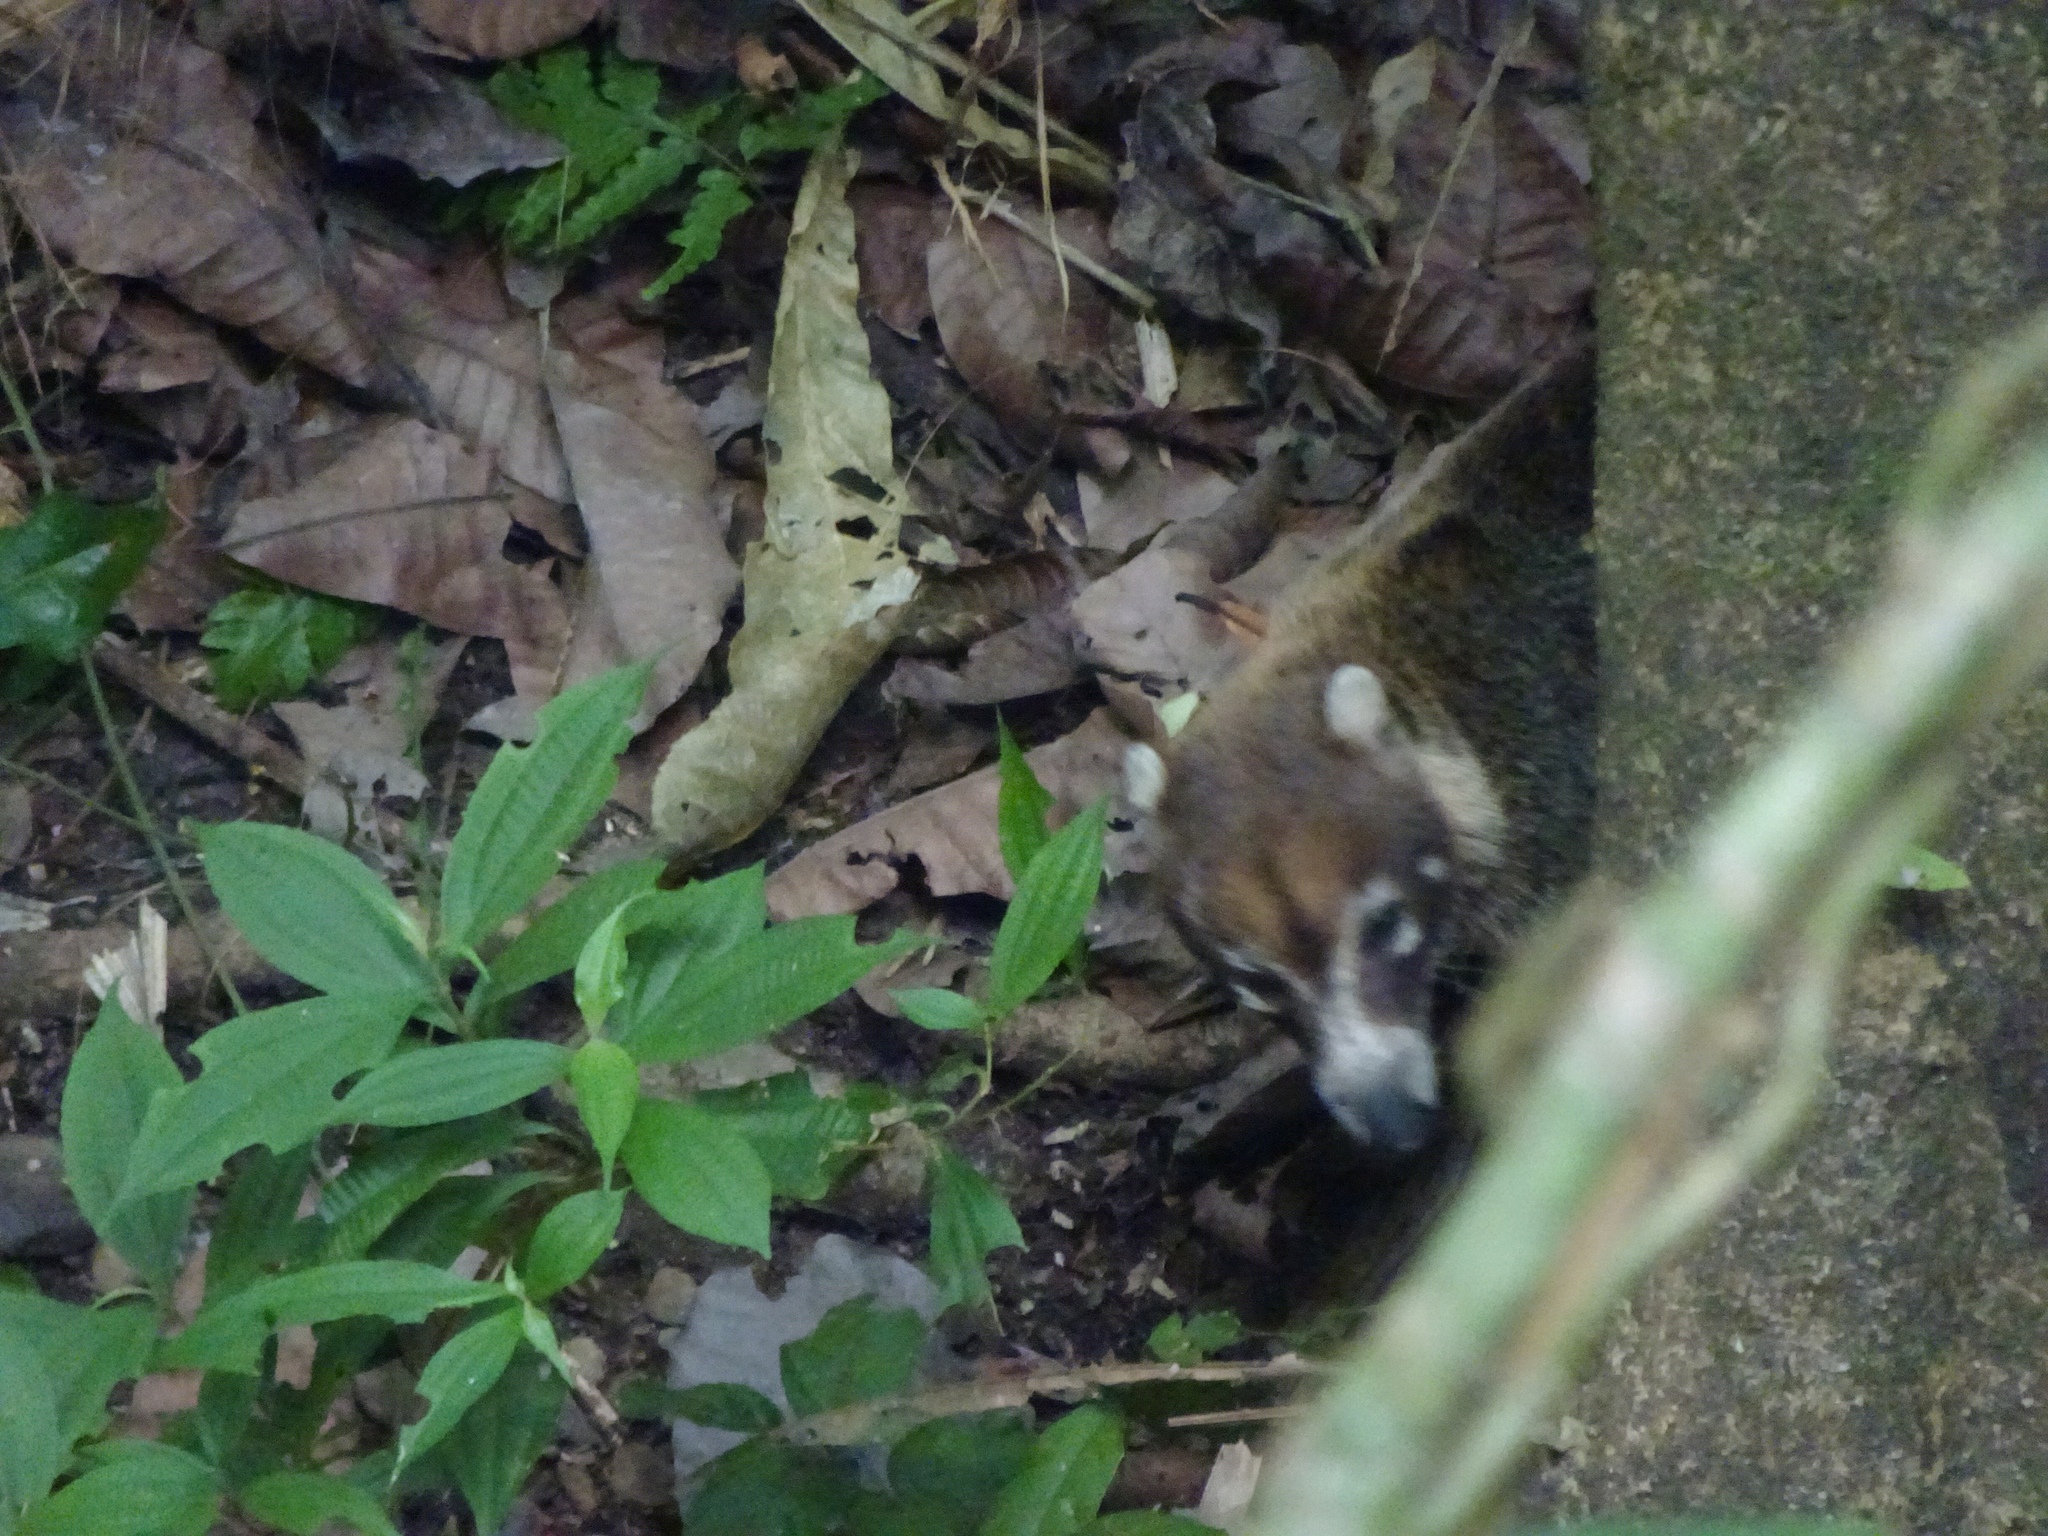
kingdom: Animalia
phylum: Chordata
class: Mammalia
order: Carnivora
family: Procyonidae
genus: Nasua
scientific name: Nasua narica
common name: White-nosed coati
